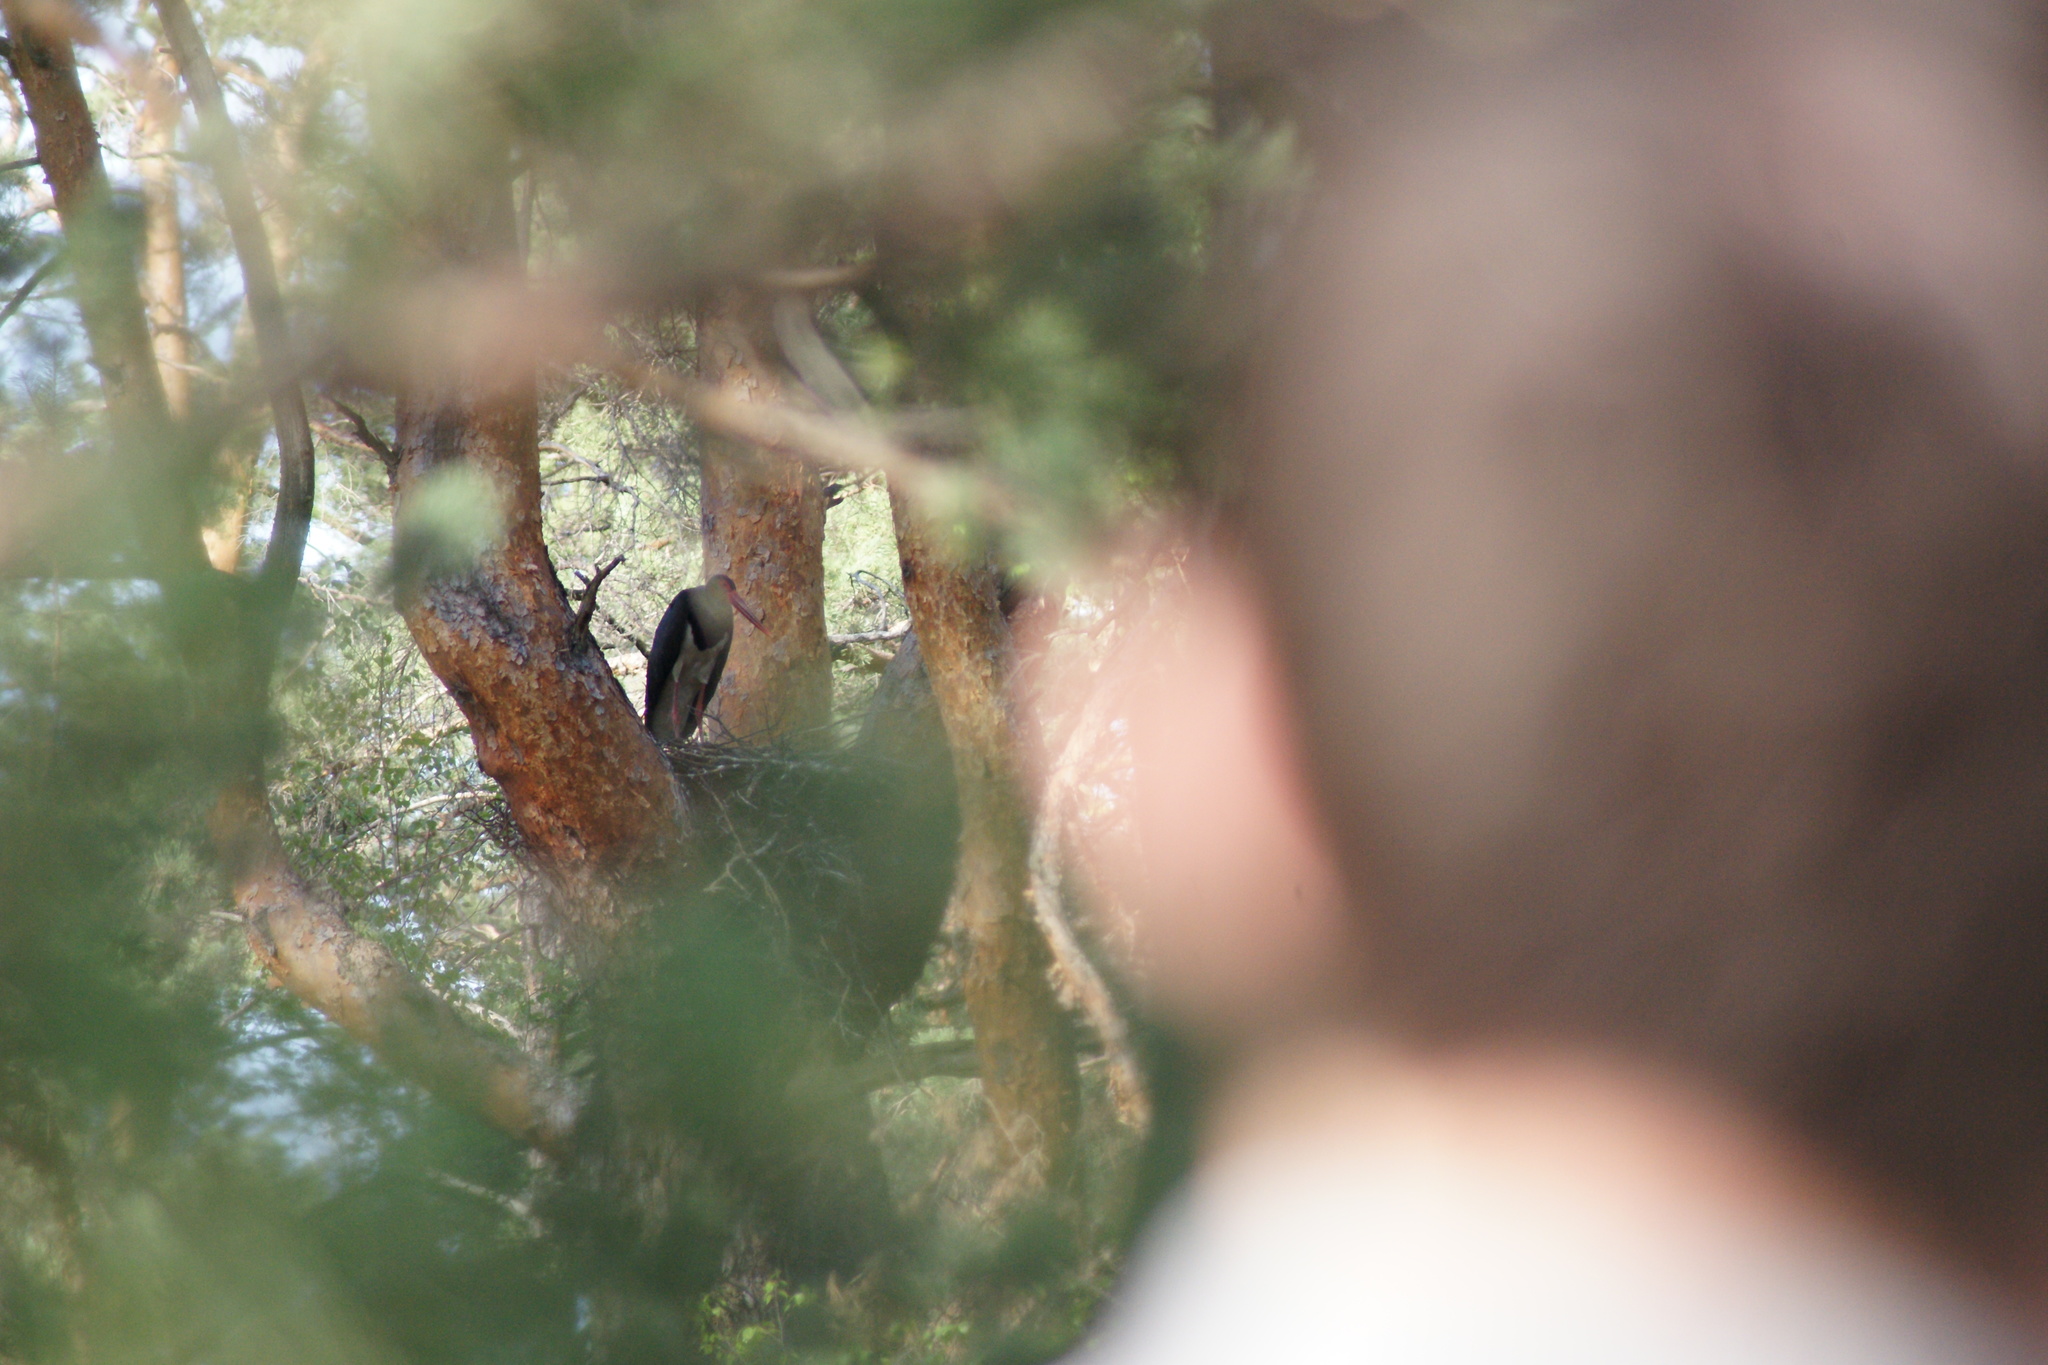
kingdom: Animalia
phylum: Chordata
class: Aves
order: Ciconiiformes
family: Ciconiidae
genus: Ciconia
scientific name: Ciconia nigra
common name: Black stork
